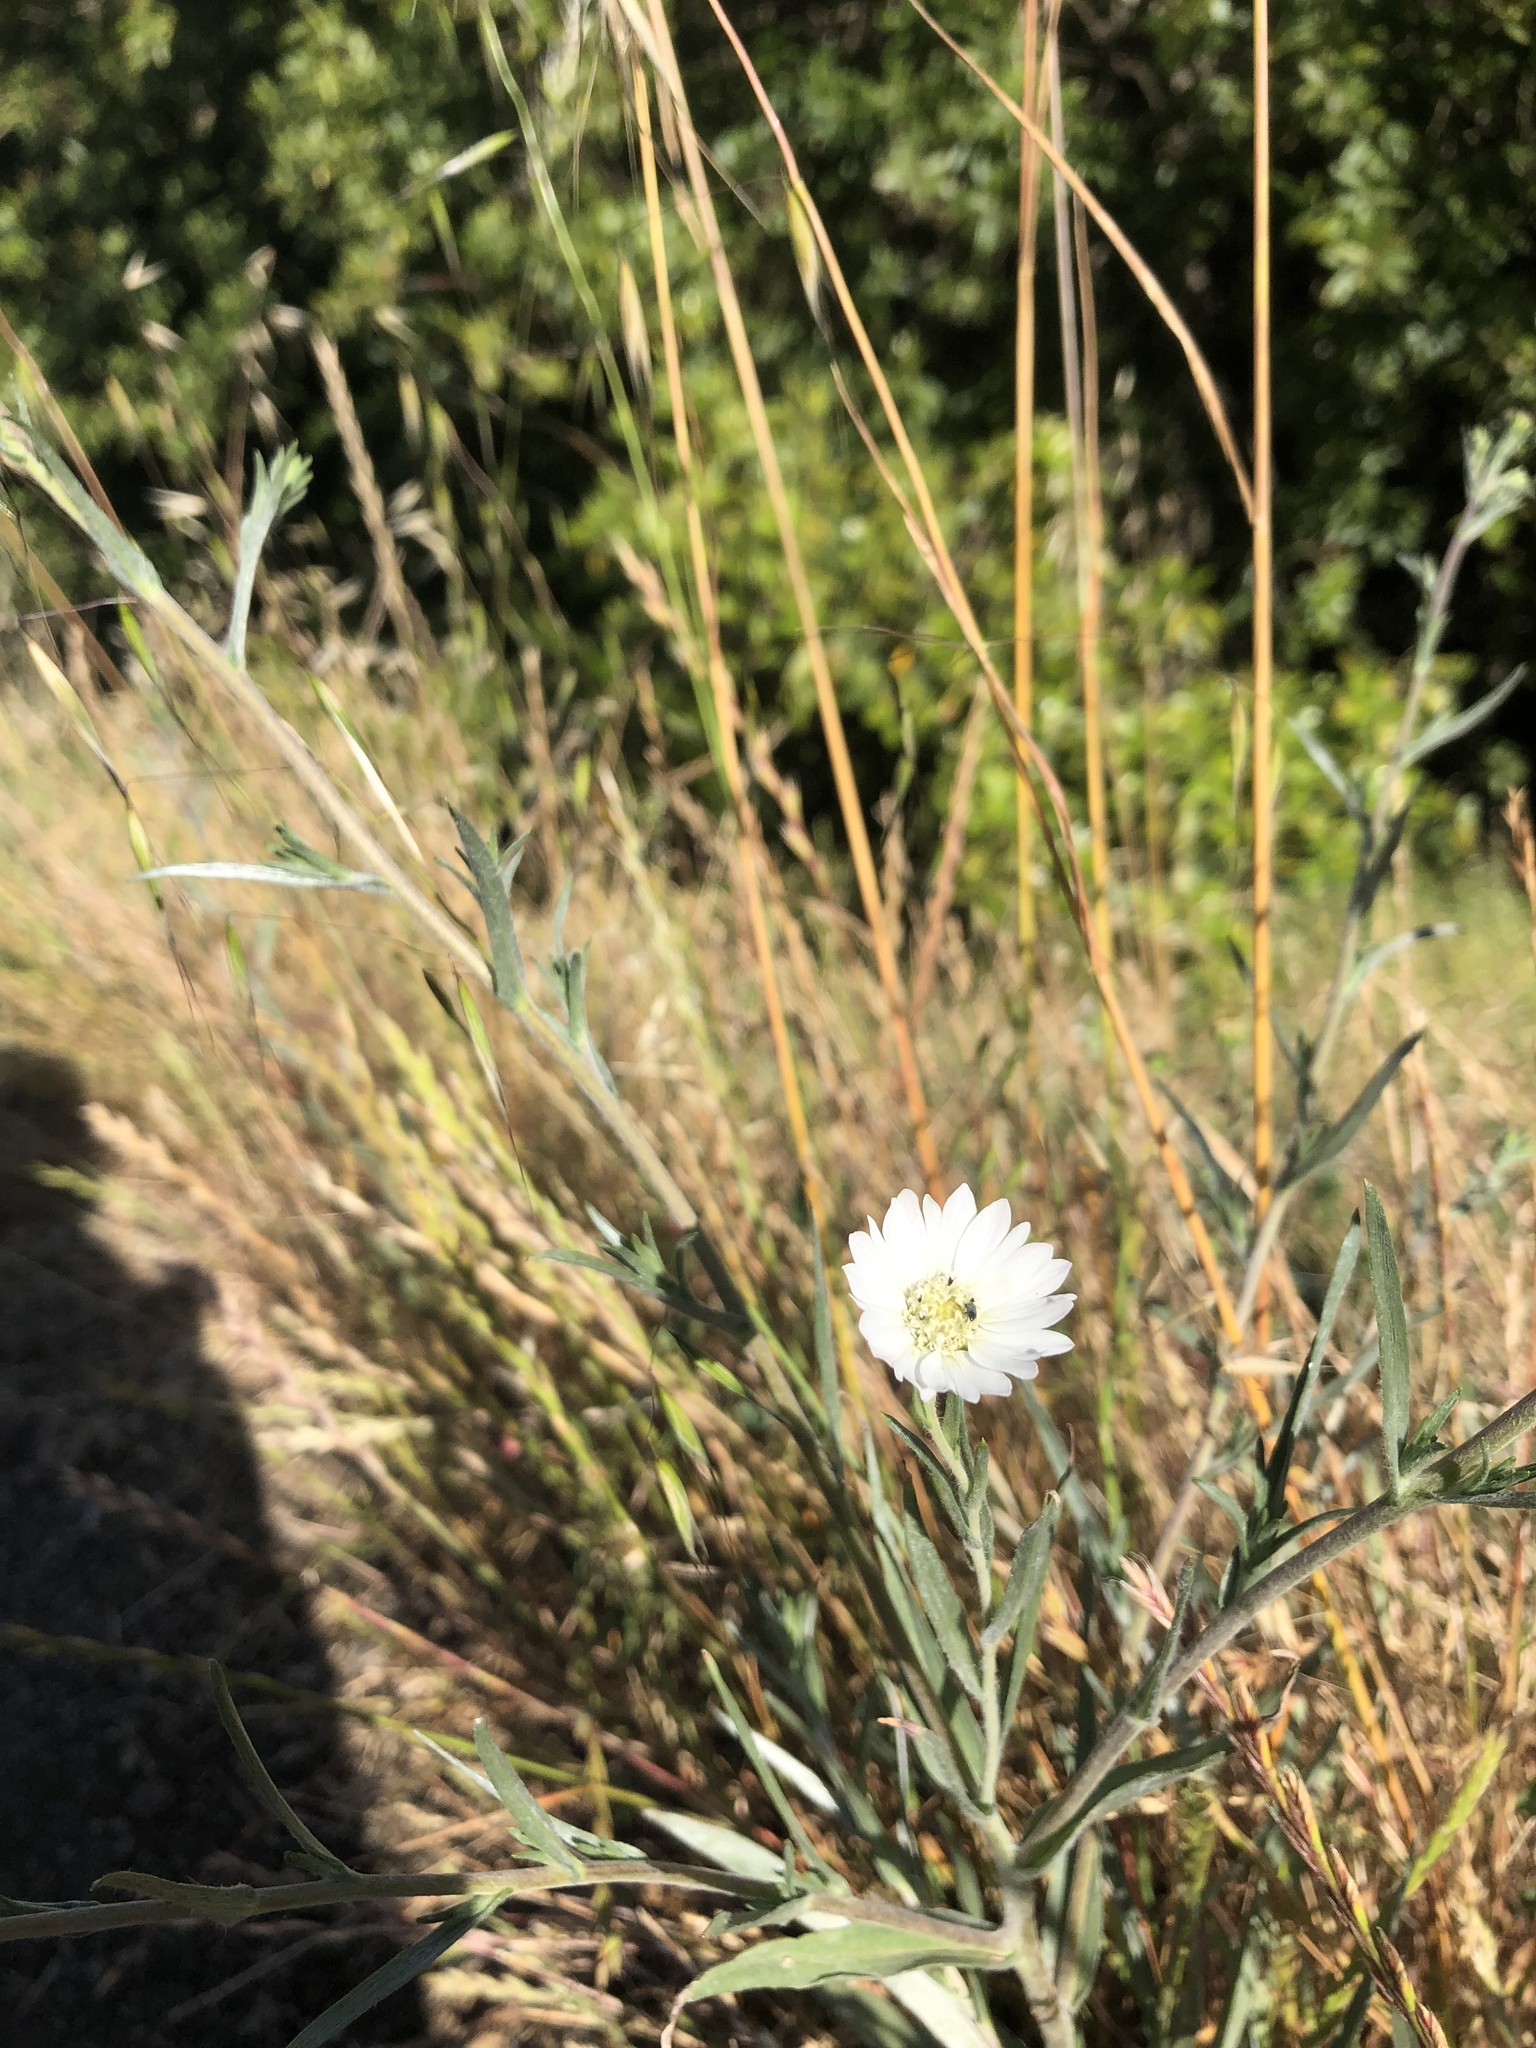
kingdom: Plantae
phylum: Tracheophyta
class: Magnoliopsida
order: Asterales
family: Asteraceae
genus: Hemizonia
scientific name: Hemizonia congesta
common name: Hayfield tarweed
